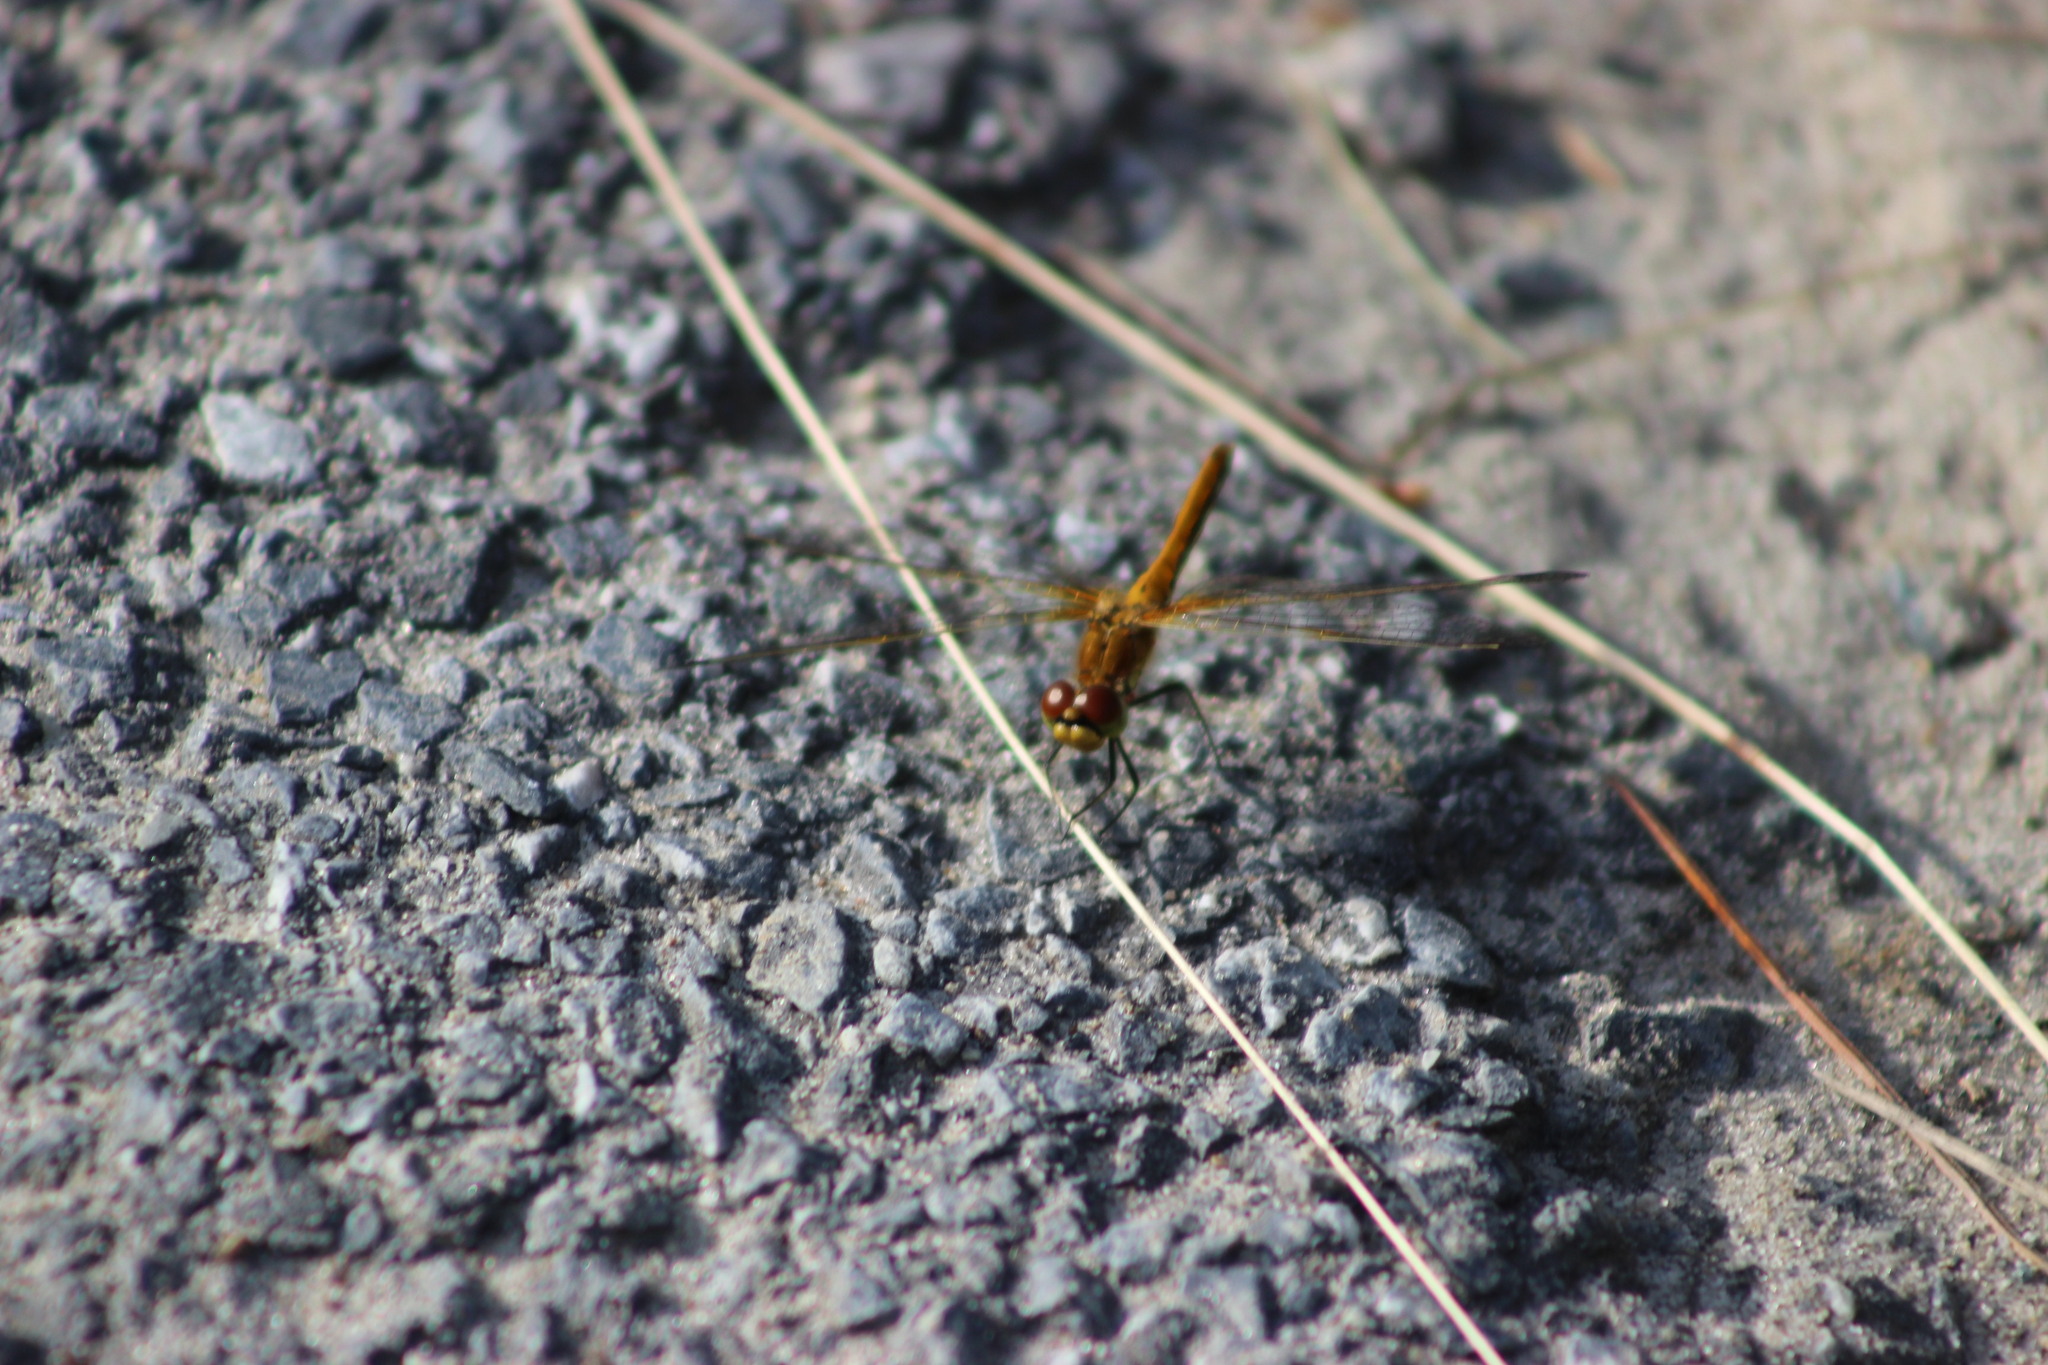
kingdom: Animalia
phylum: Arthropoda
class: Insecta
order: Odonata
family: Libellulidae
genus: Sympetrum
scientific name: Sympetrum flaveolum
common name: Yellow-winged darter
